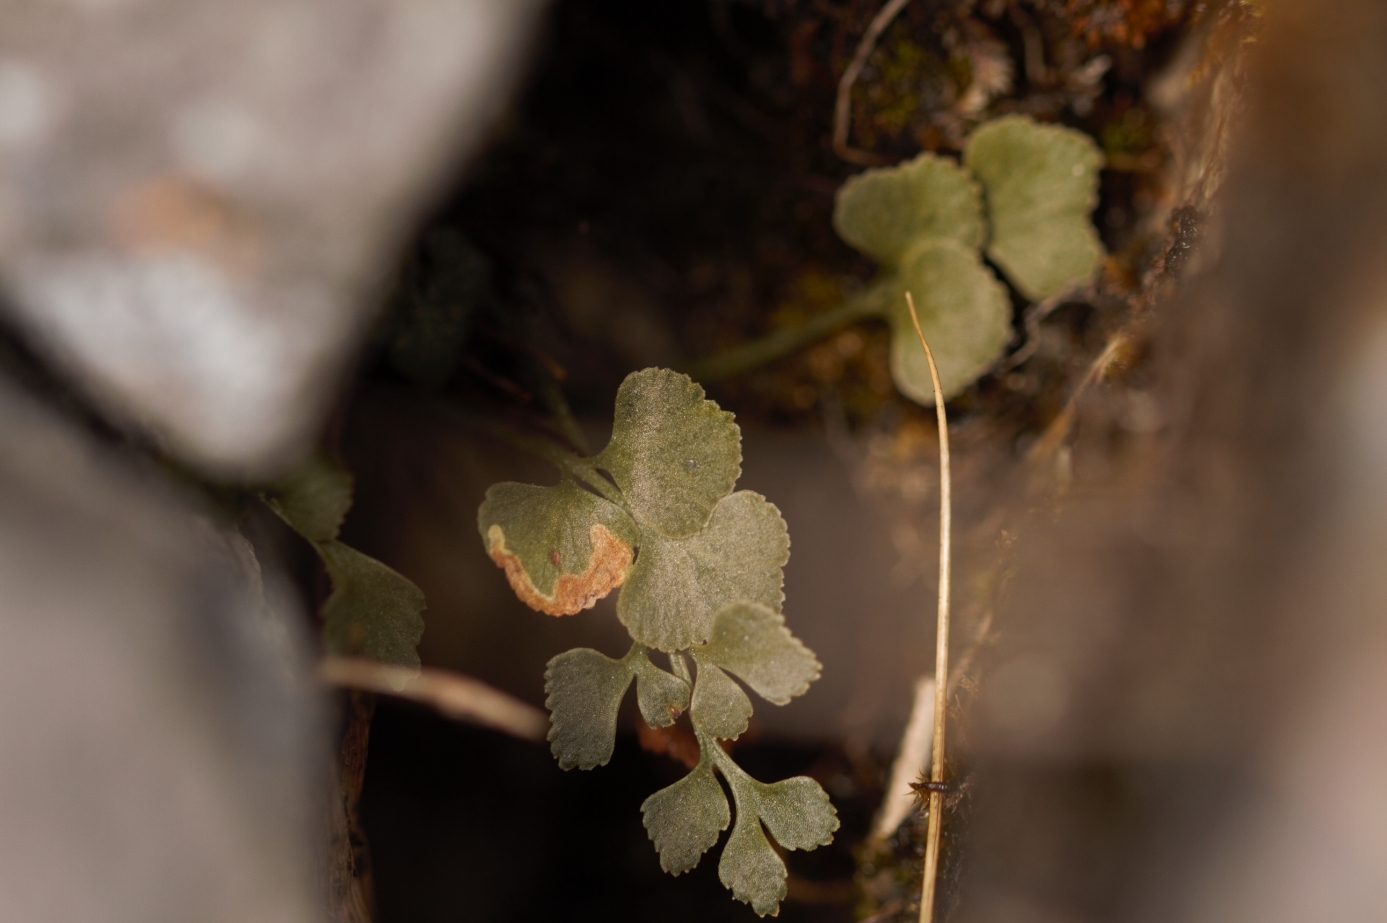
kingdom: Plantae
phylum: Tracheophyta
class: Polypodiopsida
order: Polypodiales
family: Aspleniaceae
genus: Asplenium
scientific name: Asplenium ruta-muraria
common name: Wall-rue
